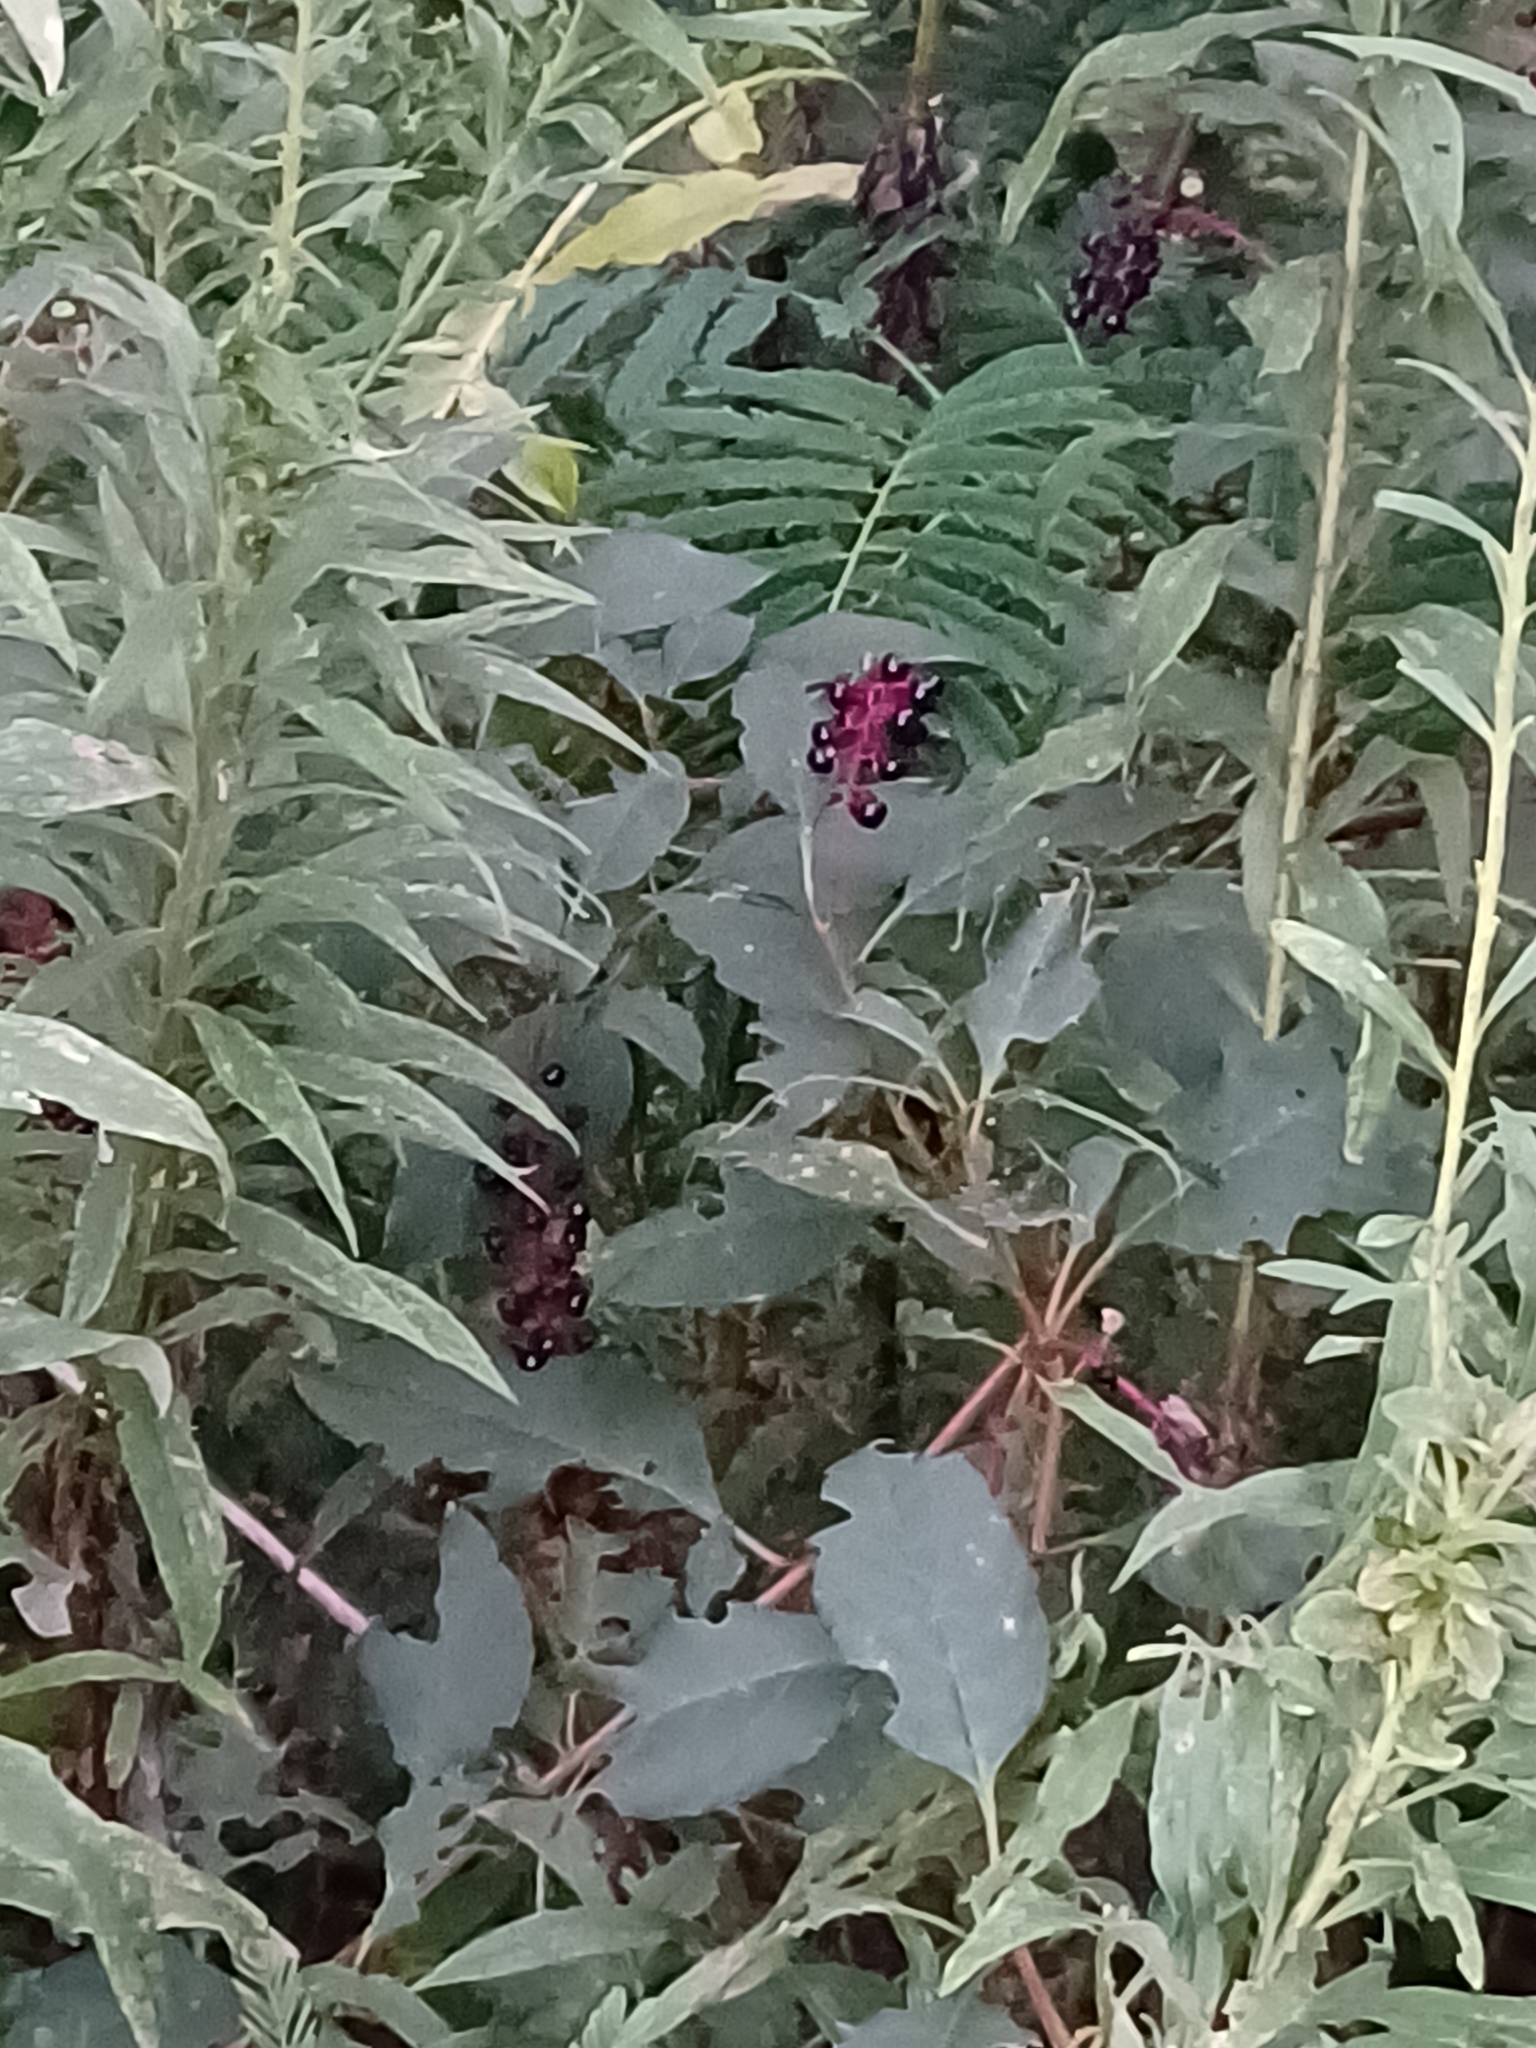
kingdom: Plantae
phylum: Tracheophyta
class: Magnoliopsida
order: Caryophyllales
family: Phytolaccaceae
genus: Phytolacca
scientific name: Phytolacca americana
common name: American pokeweed
